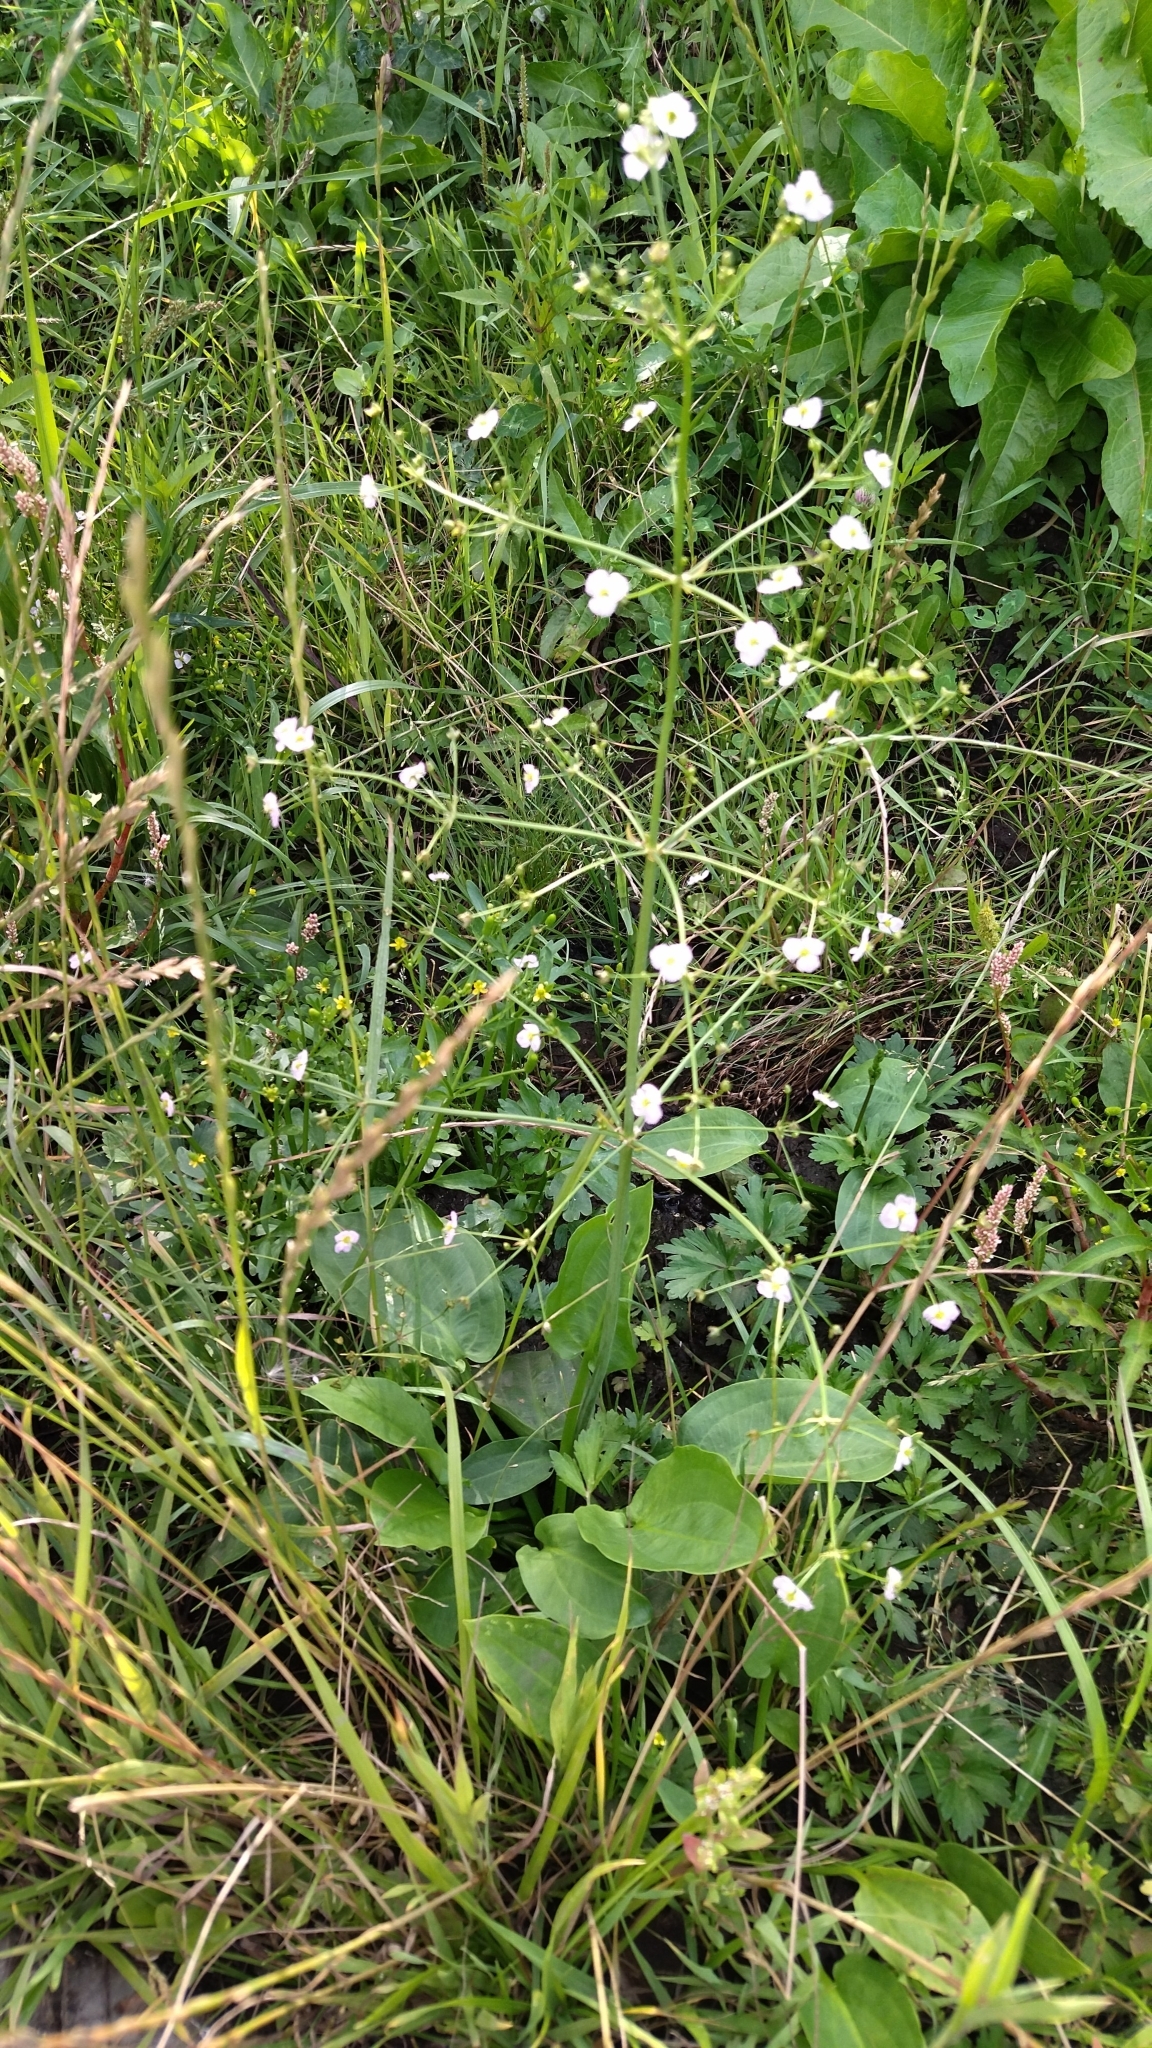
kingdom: Plantae
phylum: Tracheophyta
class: Liliopsida
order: Alismatales
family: Alismataceae
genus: Alisma
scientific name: Alisma plantago-aquatica
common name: Water-plantain
